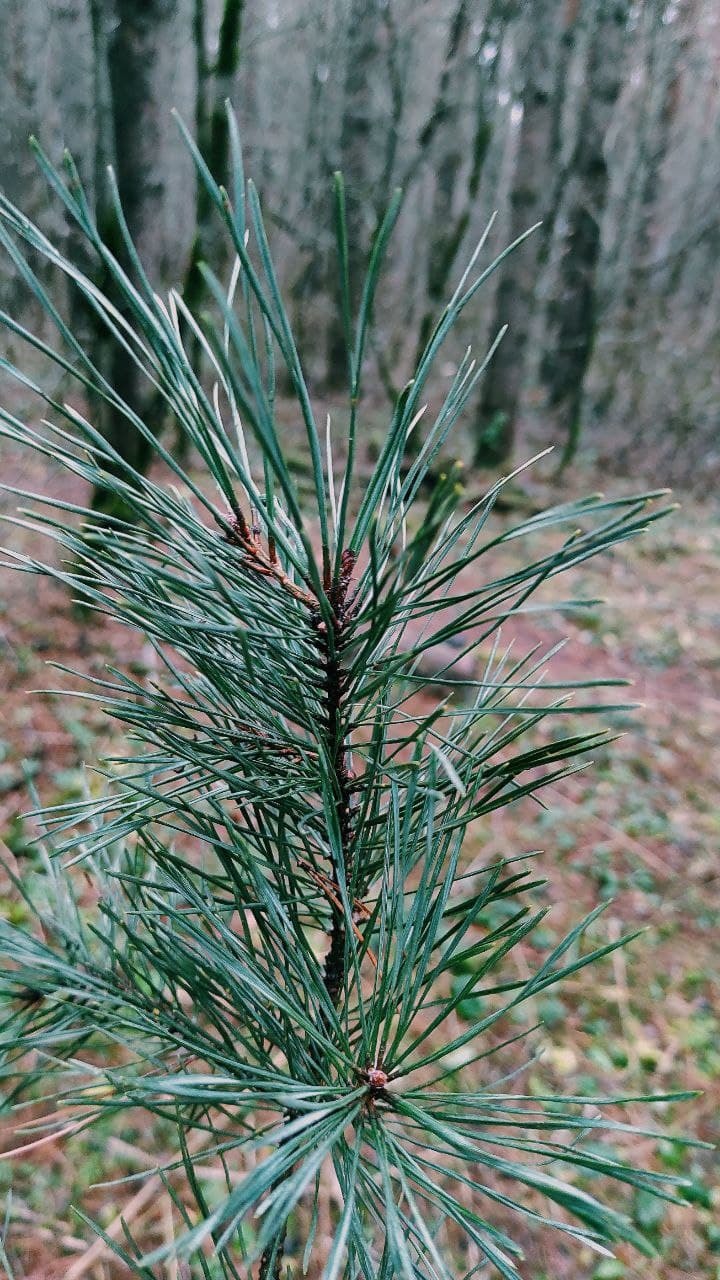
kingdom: Plantae
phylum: Tracheophyta
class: Pinopsida
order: Pinales
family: Pinaceae
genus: Pinus
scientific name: Pinus sylvestris
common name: Scots pine
